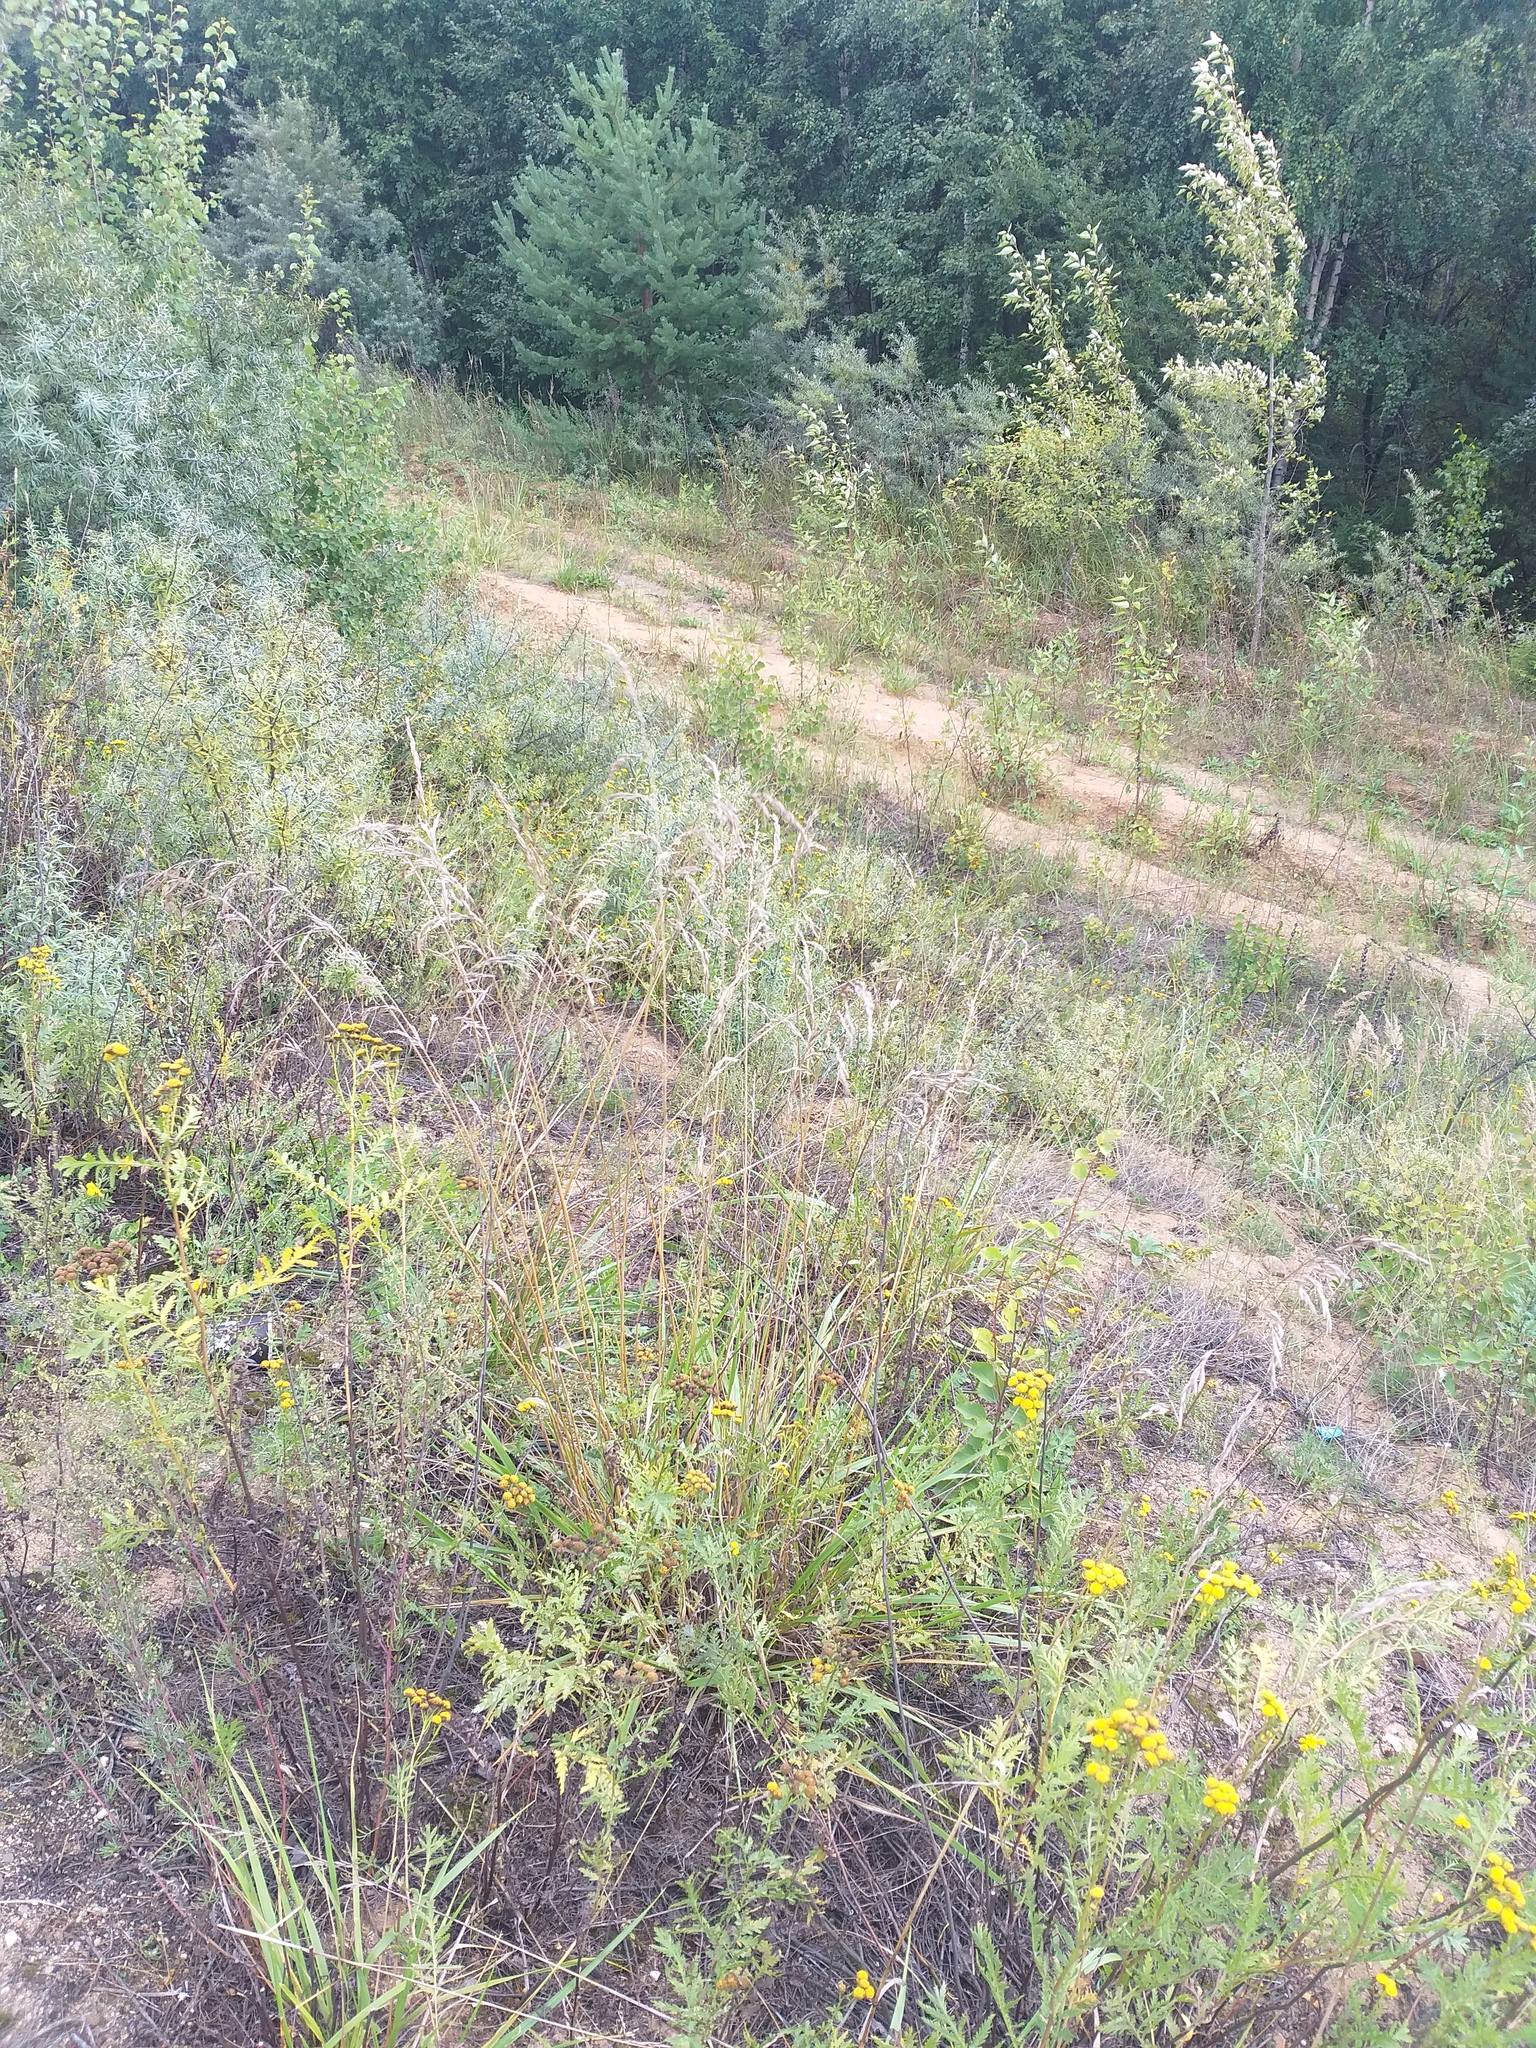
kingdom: Plantae
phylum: Tracheophyta
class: Liliopsida
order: Poales
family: Poaceae
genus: Lolium
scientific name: Lolium arundinaceum
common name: Reed fescue
